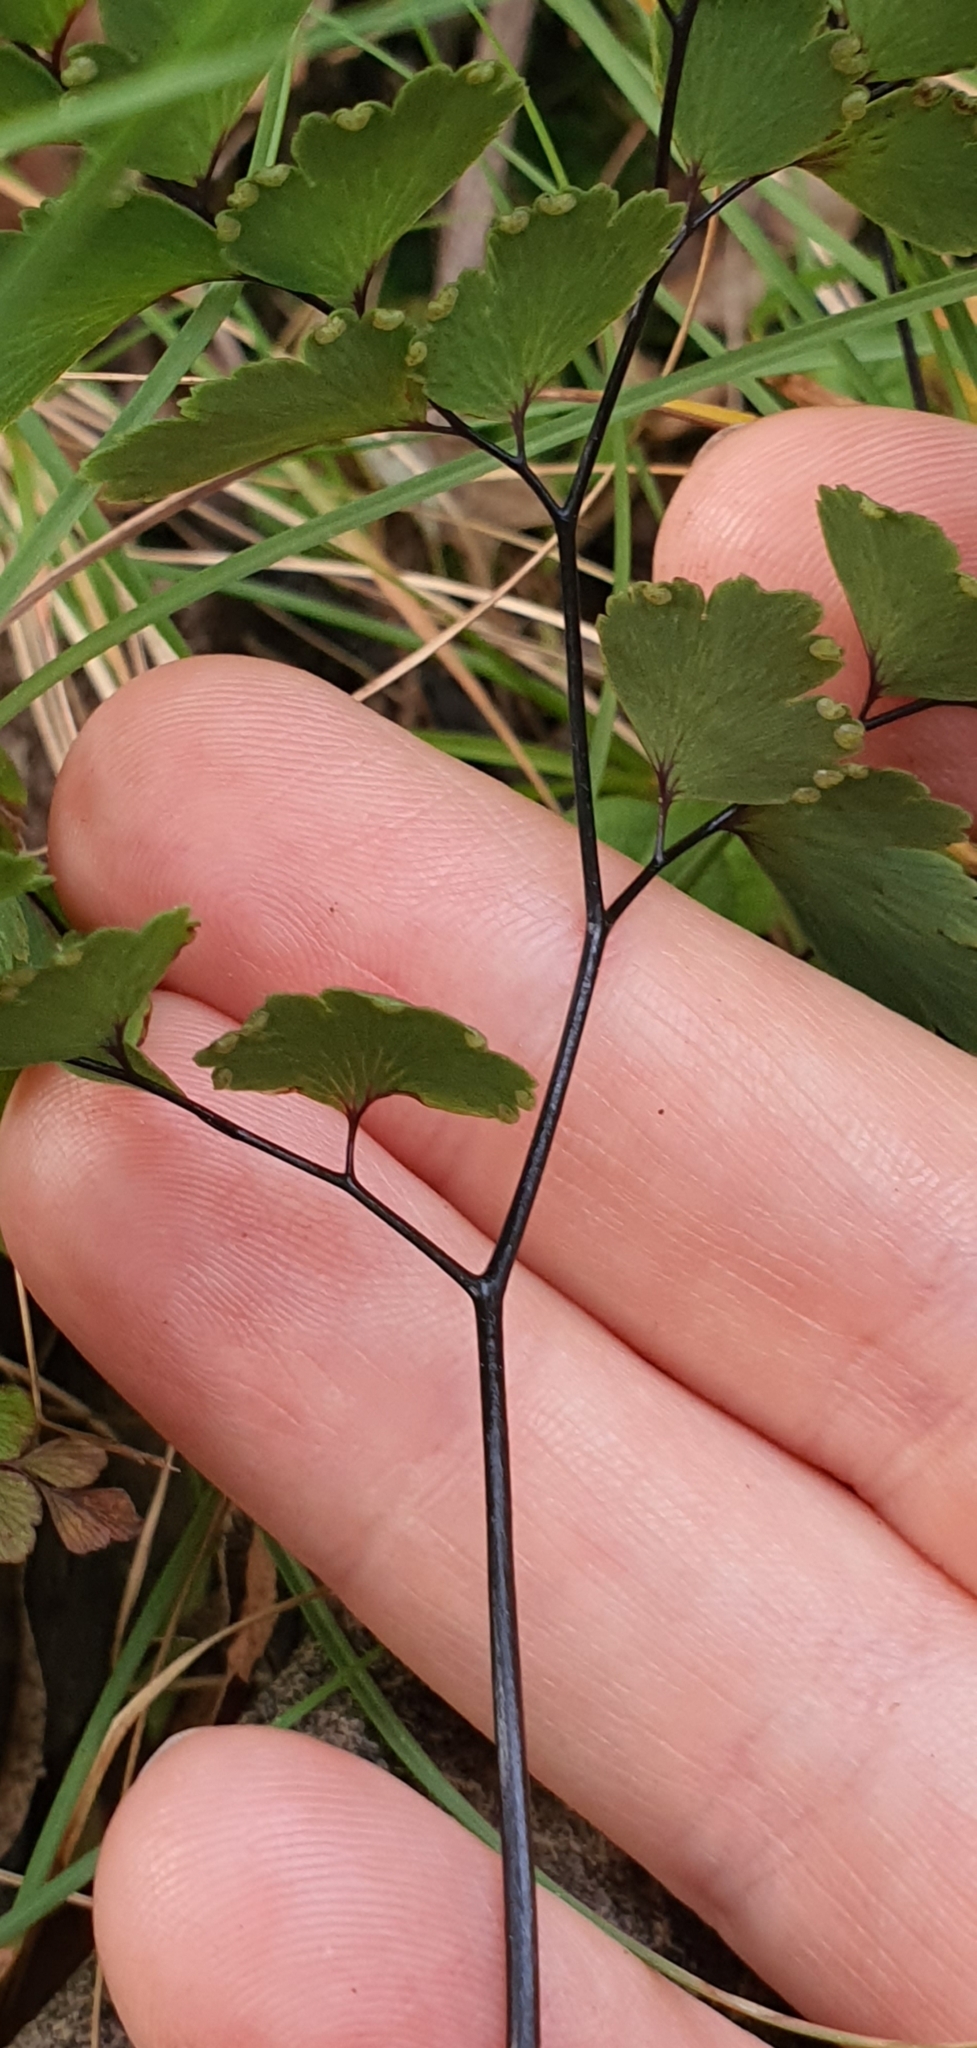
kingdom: Plantae
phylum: Tracheophyta
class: Polypodiopsida
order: Polypodiales
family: Pteridaceae
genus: Adiantum
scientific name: Adiantum cunninghamii
